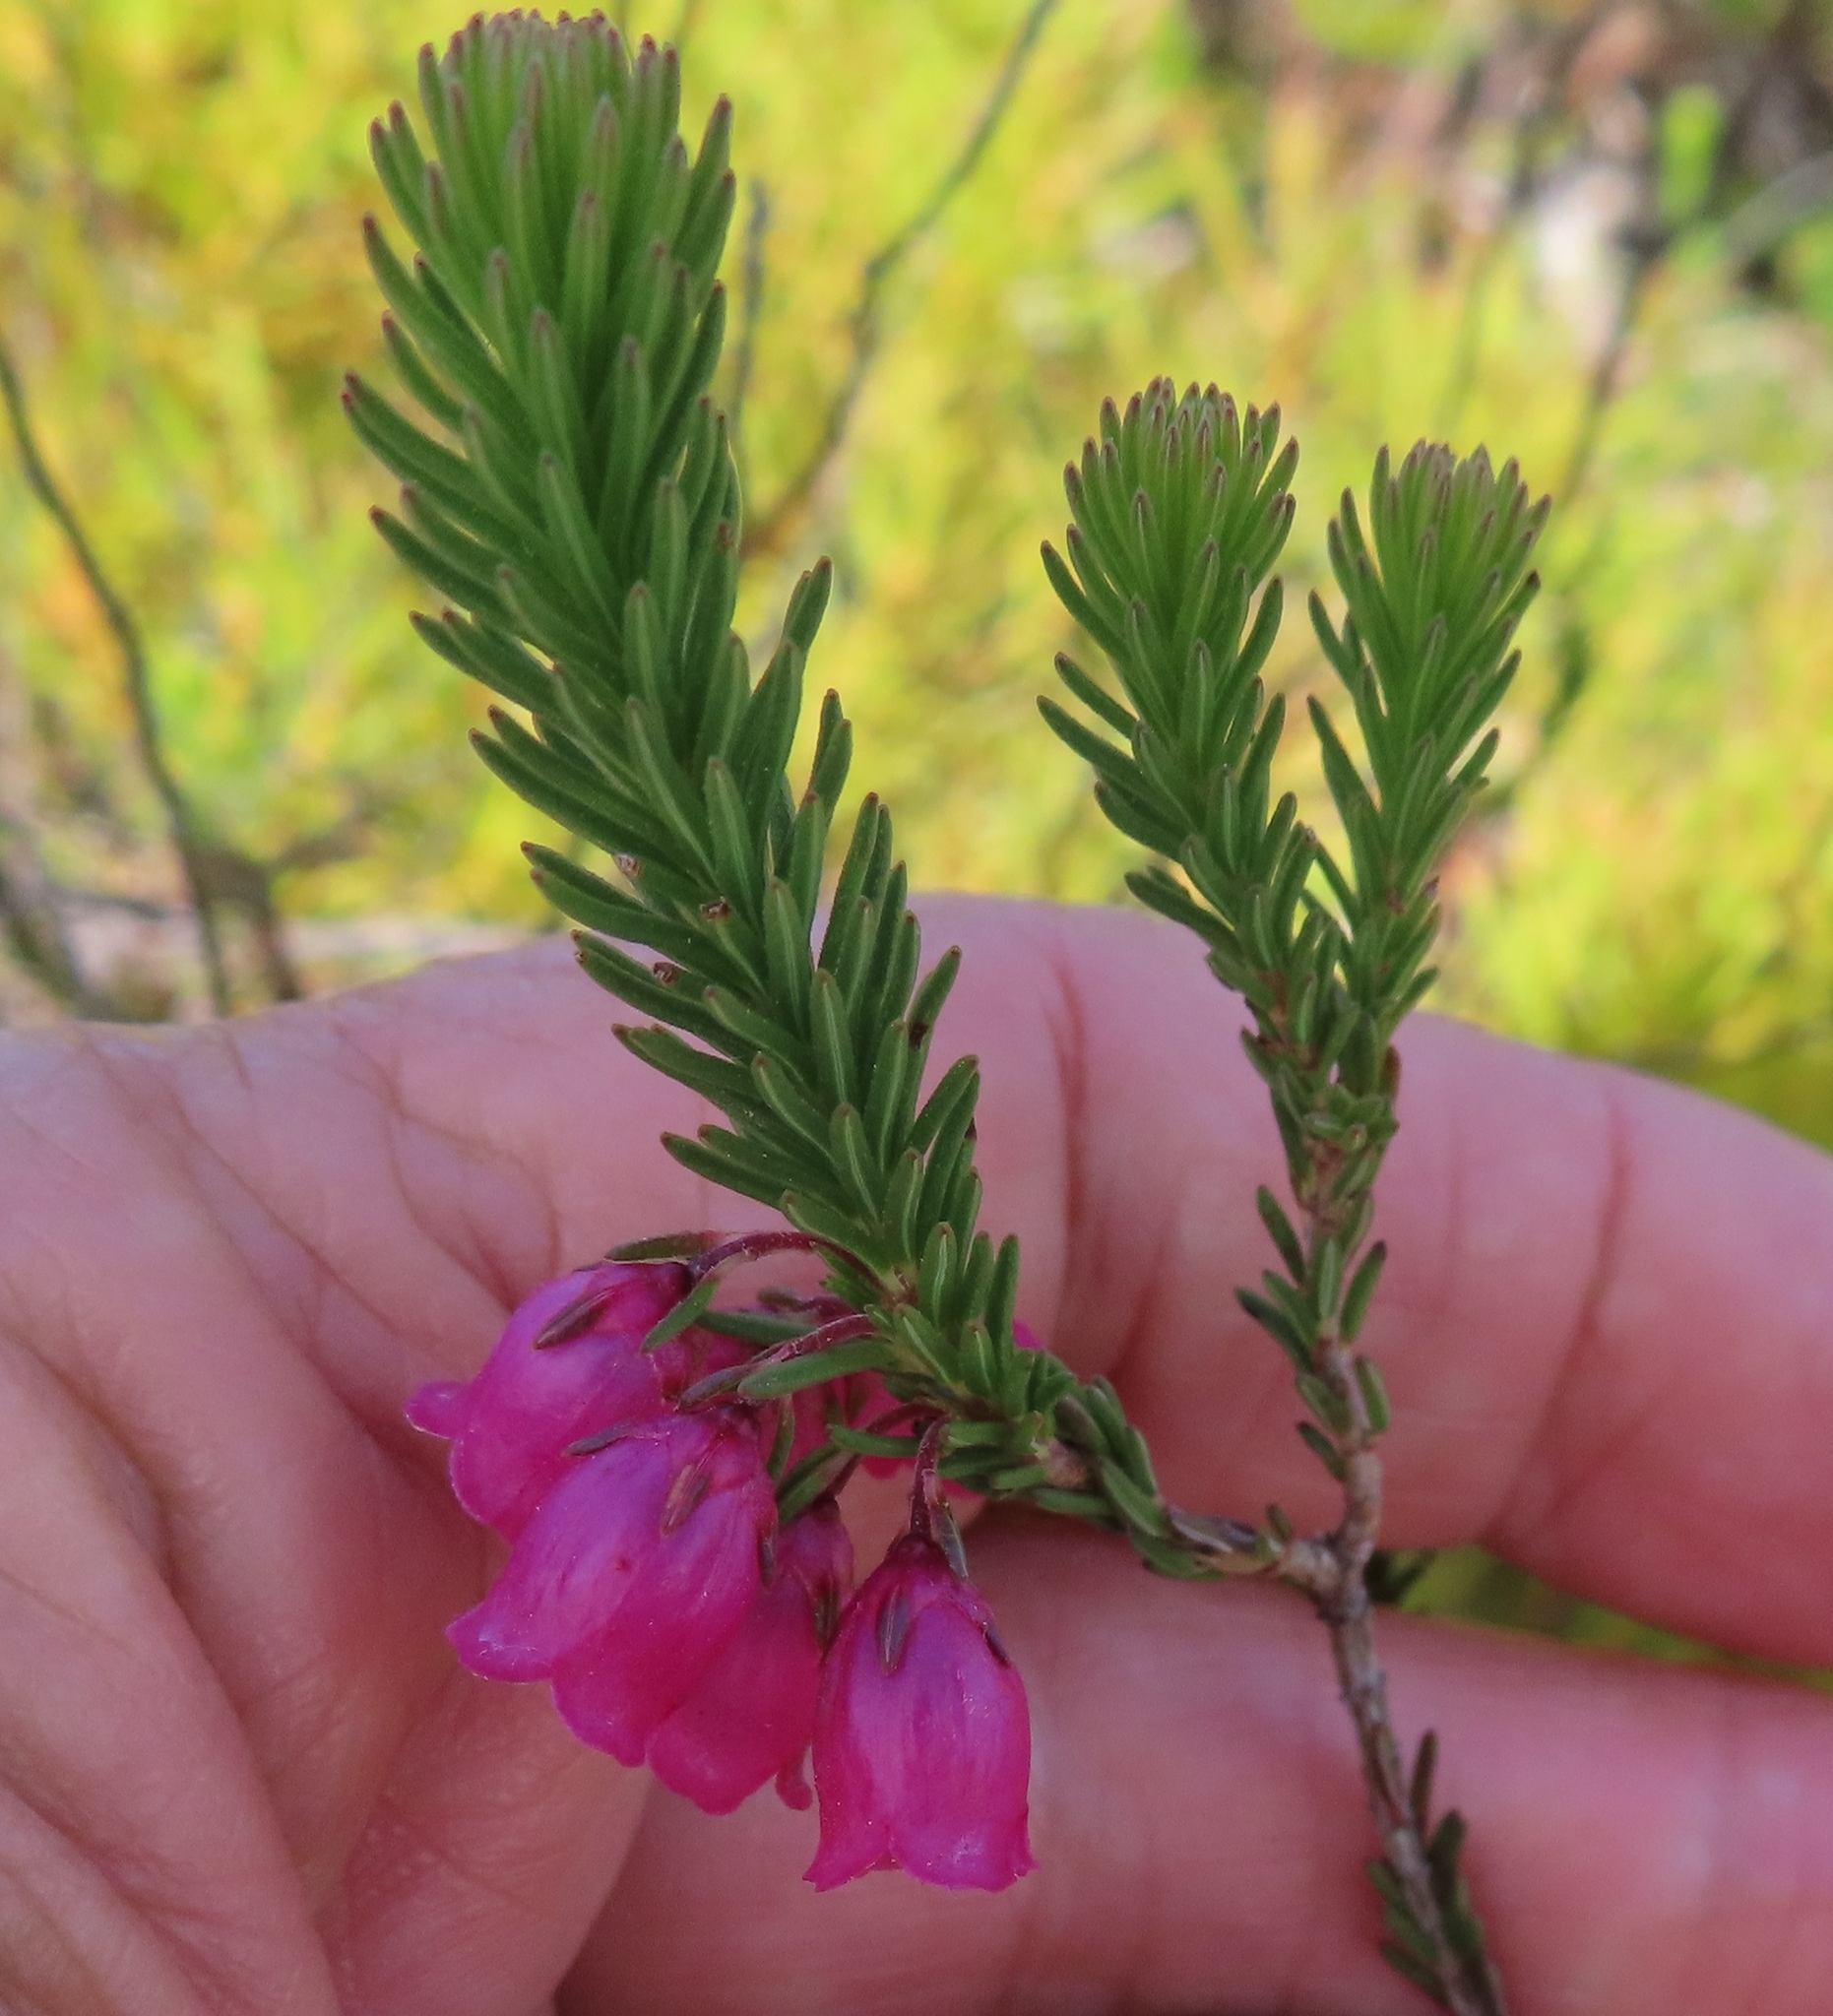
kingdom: Plantae
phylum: Tracheophyta
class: Magnoliopsida
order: Ericales
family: Ericaceae
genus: Erica
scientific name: Erica axilliflora
